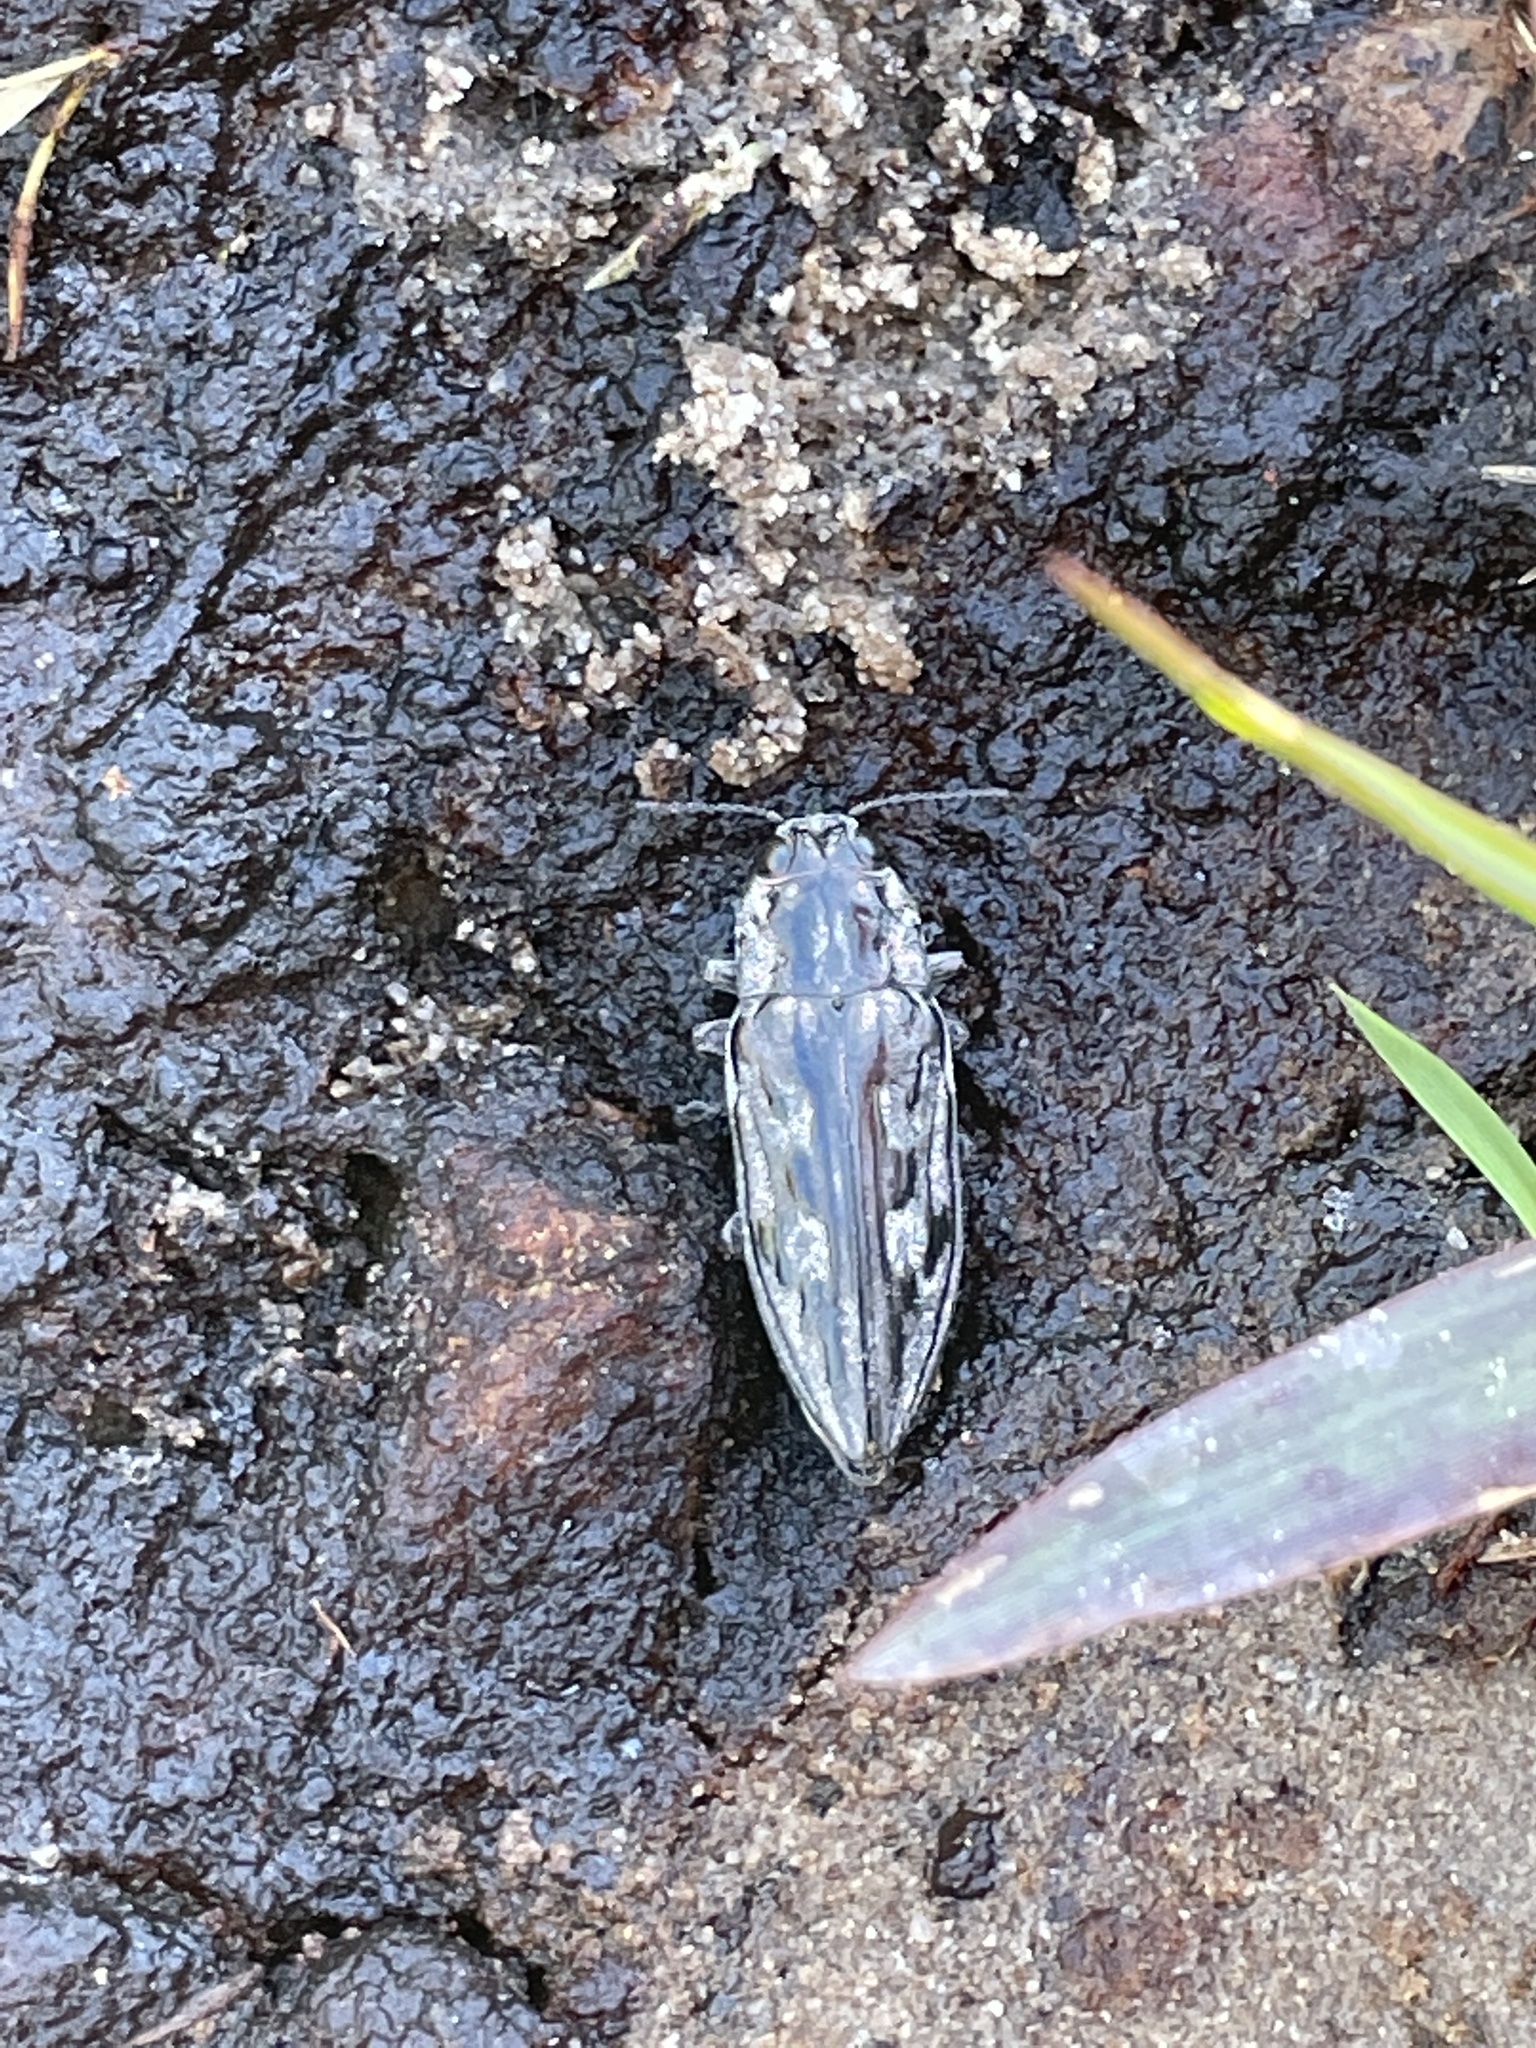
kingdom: Animalia
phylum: Arthropoda
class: Insecta
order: Coleoptera
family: Buprestidae
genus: Chalcophora
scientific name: Chalcophora virginiensis
